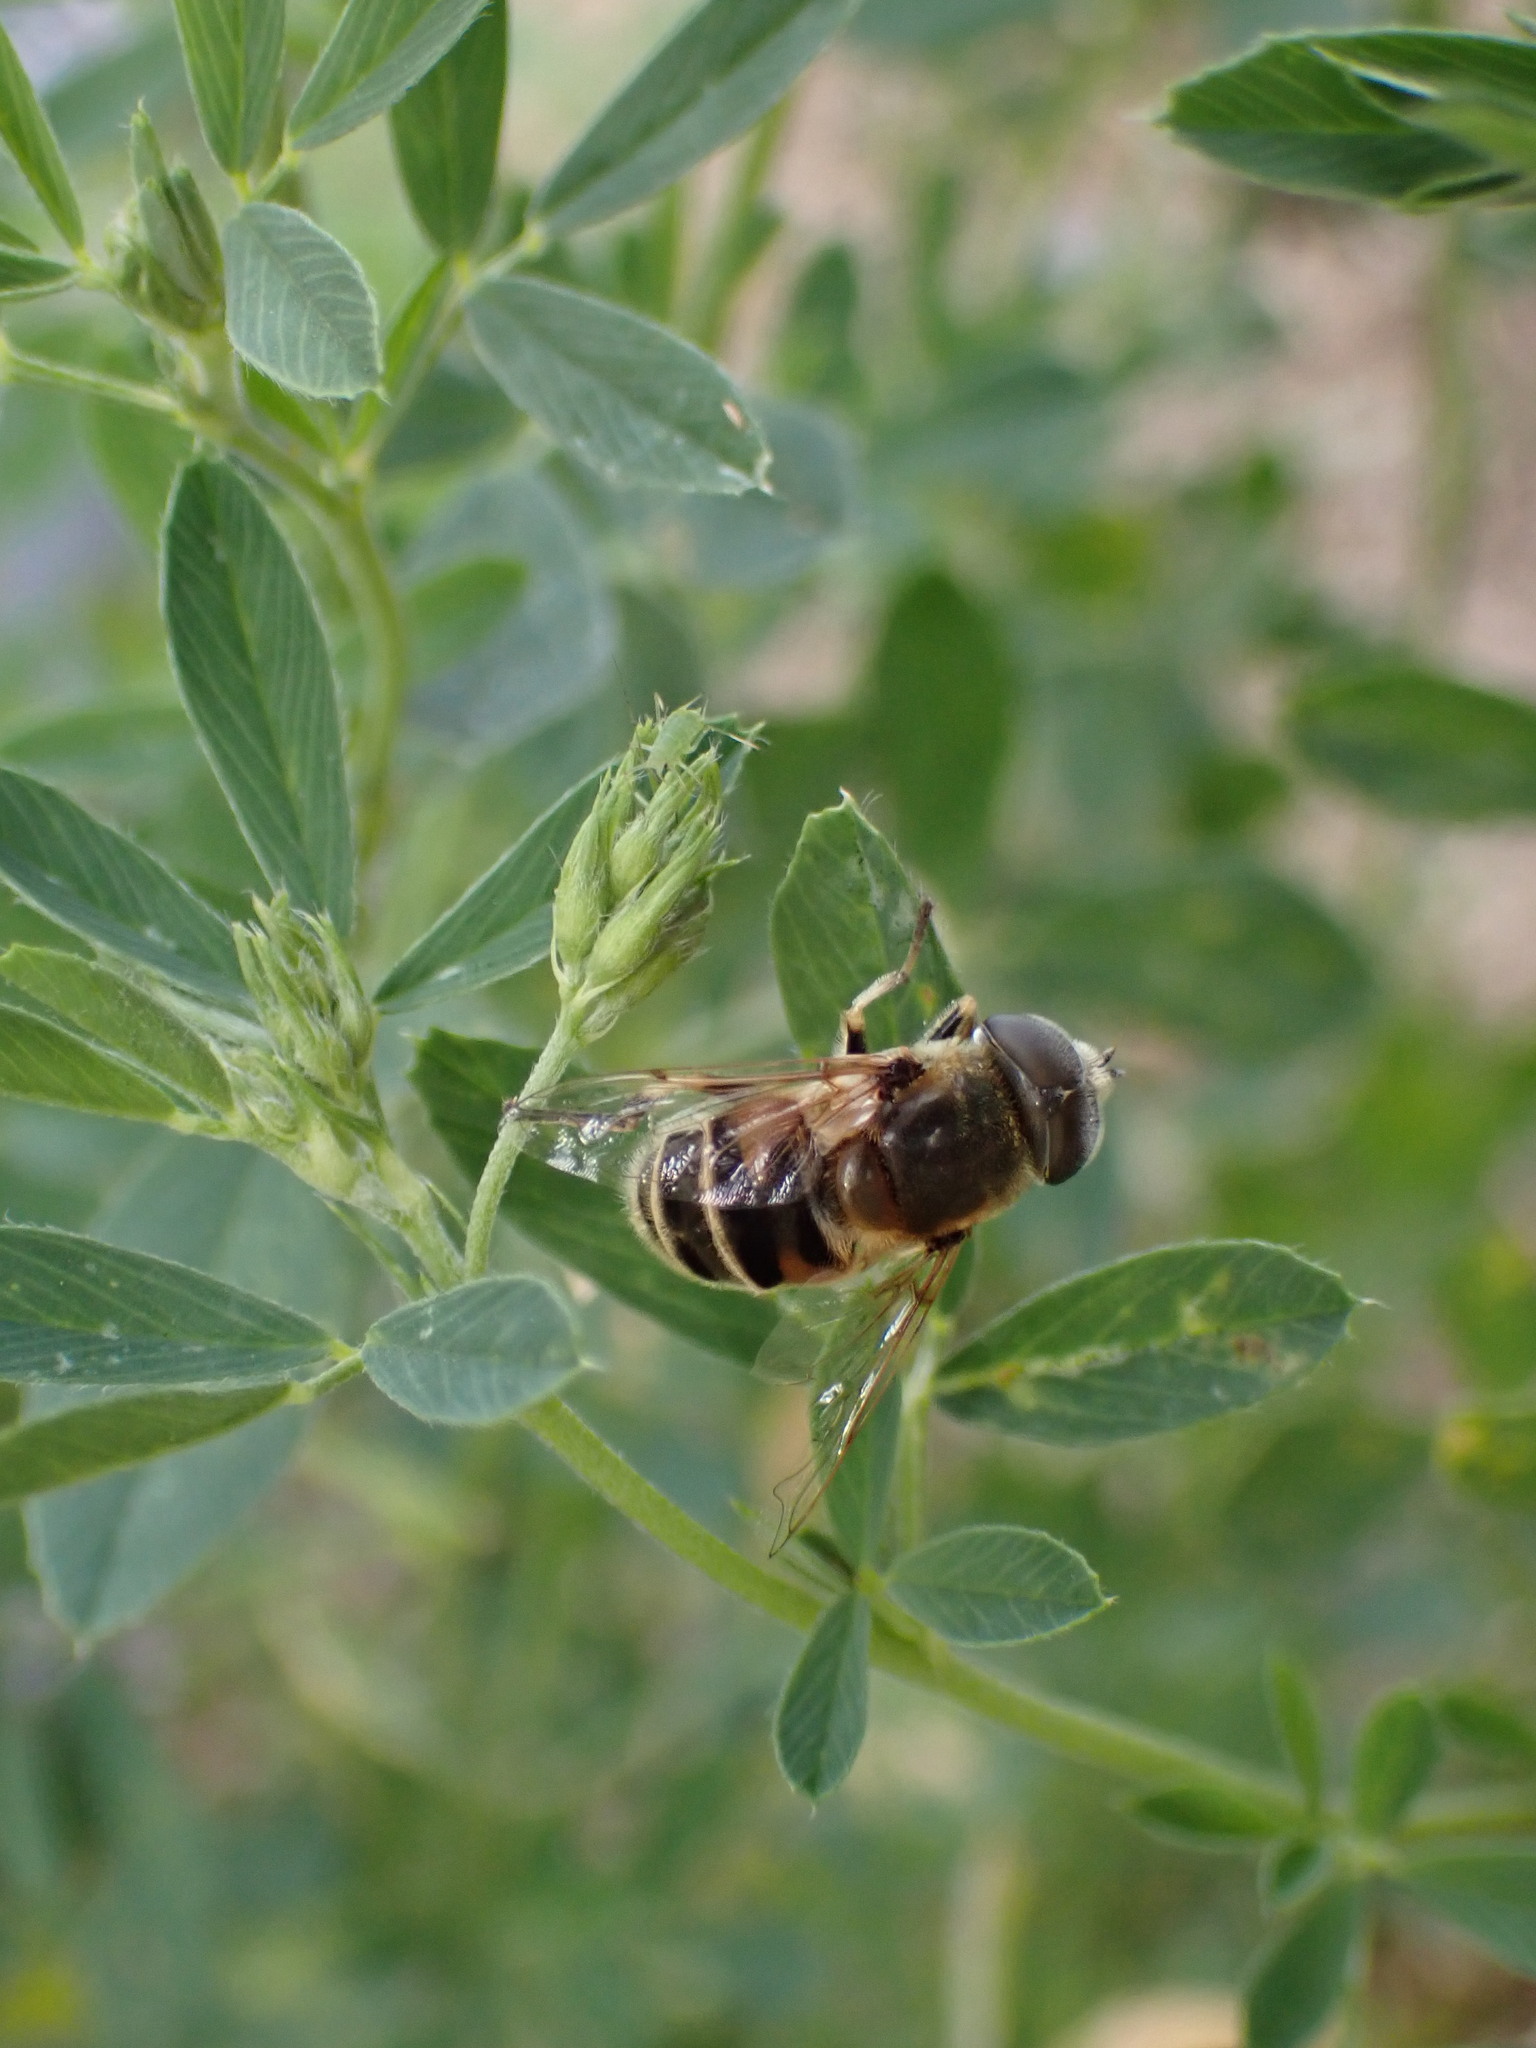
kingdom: Animalia
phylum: Arthropoda
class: Insecta
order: Diptera
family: Syrphidae
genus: Eristalis
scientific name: Eristalis stipator
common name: Yellow-shouldered drone fly
